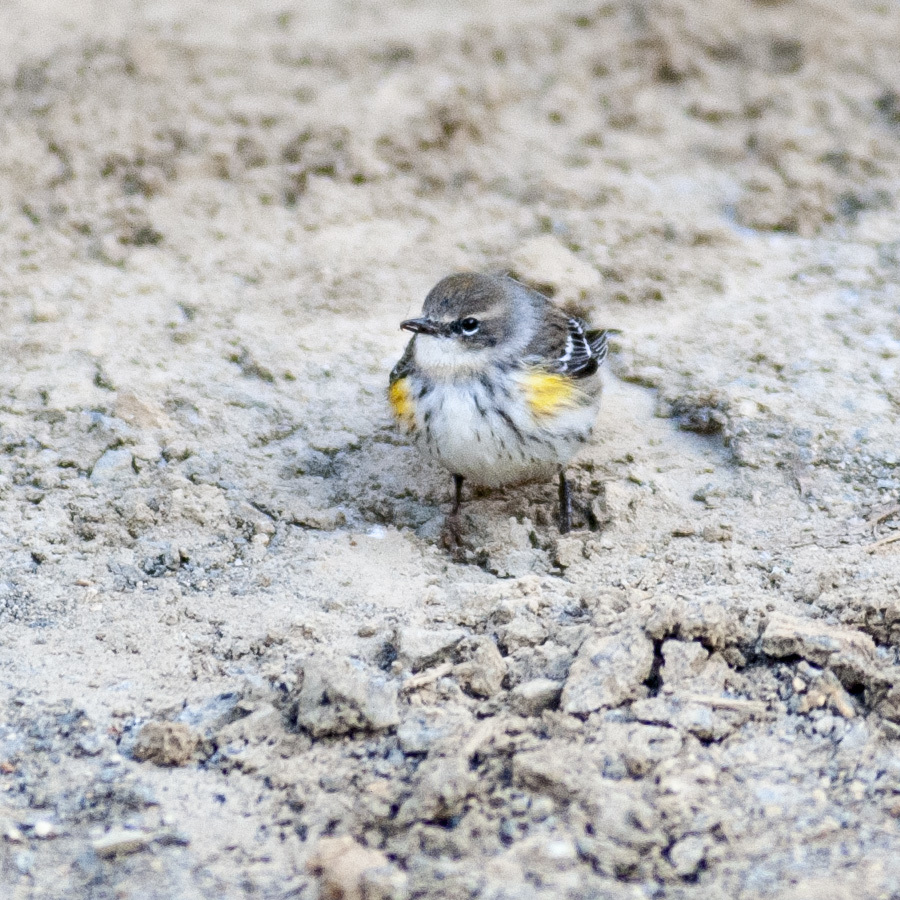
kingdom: Animalia
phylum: Chordata
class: Aves
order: Passeriformes
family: Parulidae
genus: Setophaga
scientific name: Setophaga coronata
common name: Myrtle warbler
